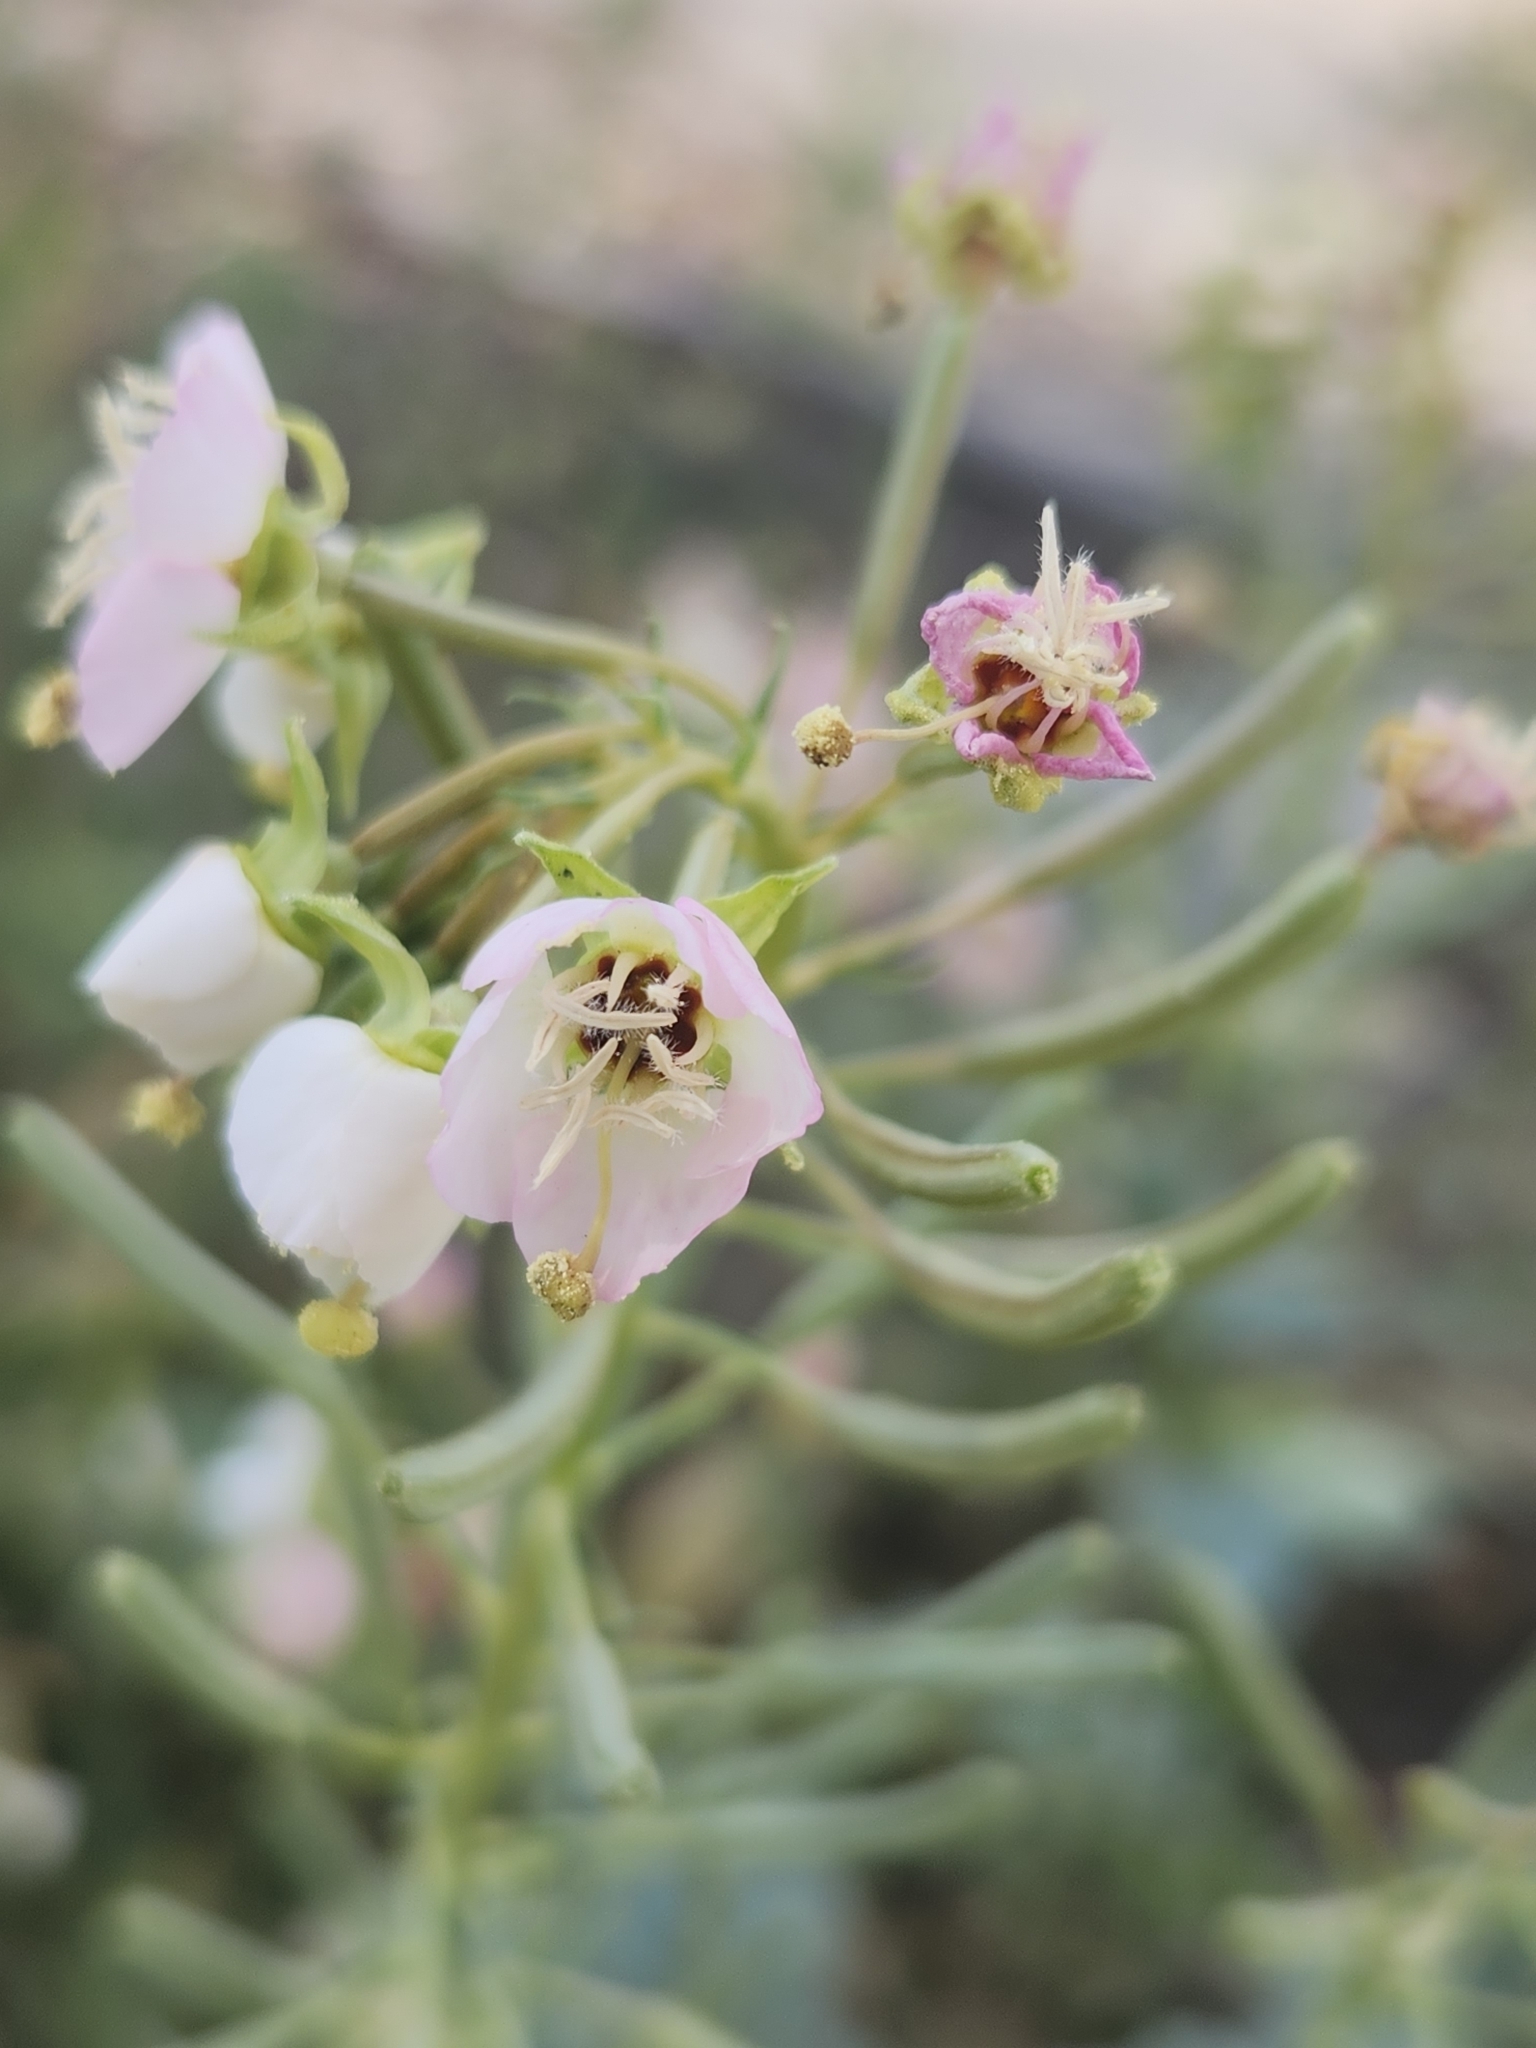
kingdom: Plantae
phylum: Tracheophyta
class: Magnoliopsida
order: Myrtales
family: Onagraceae
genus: Chylismia
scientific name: Chylismia claviformis
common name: Browneyes
